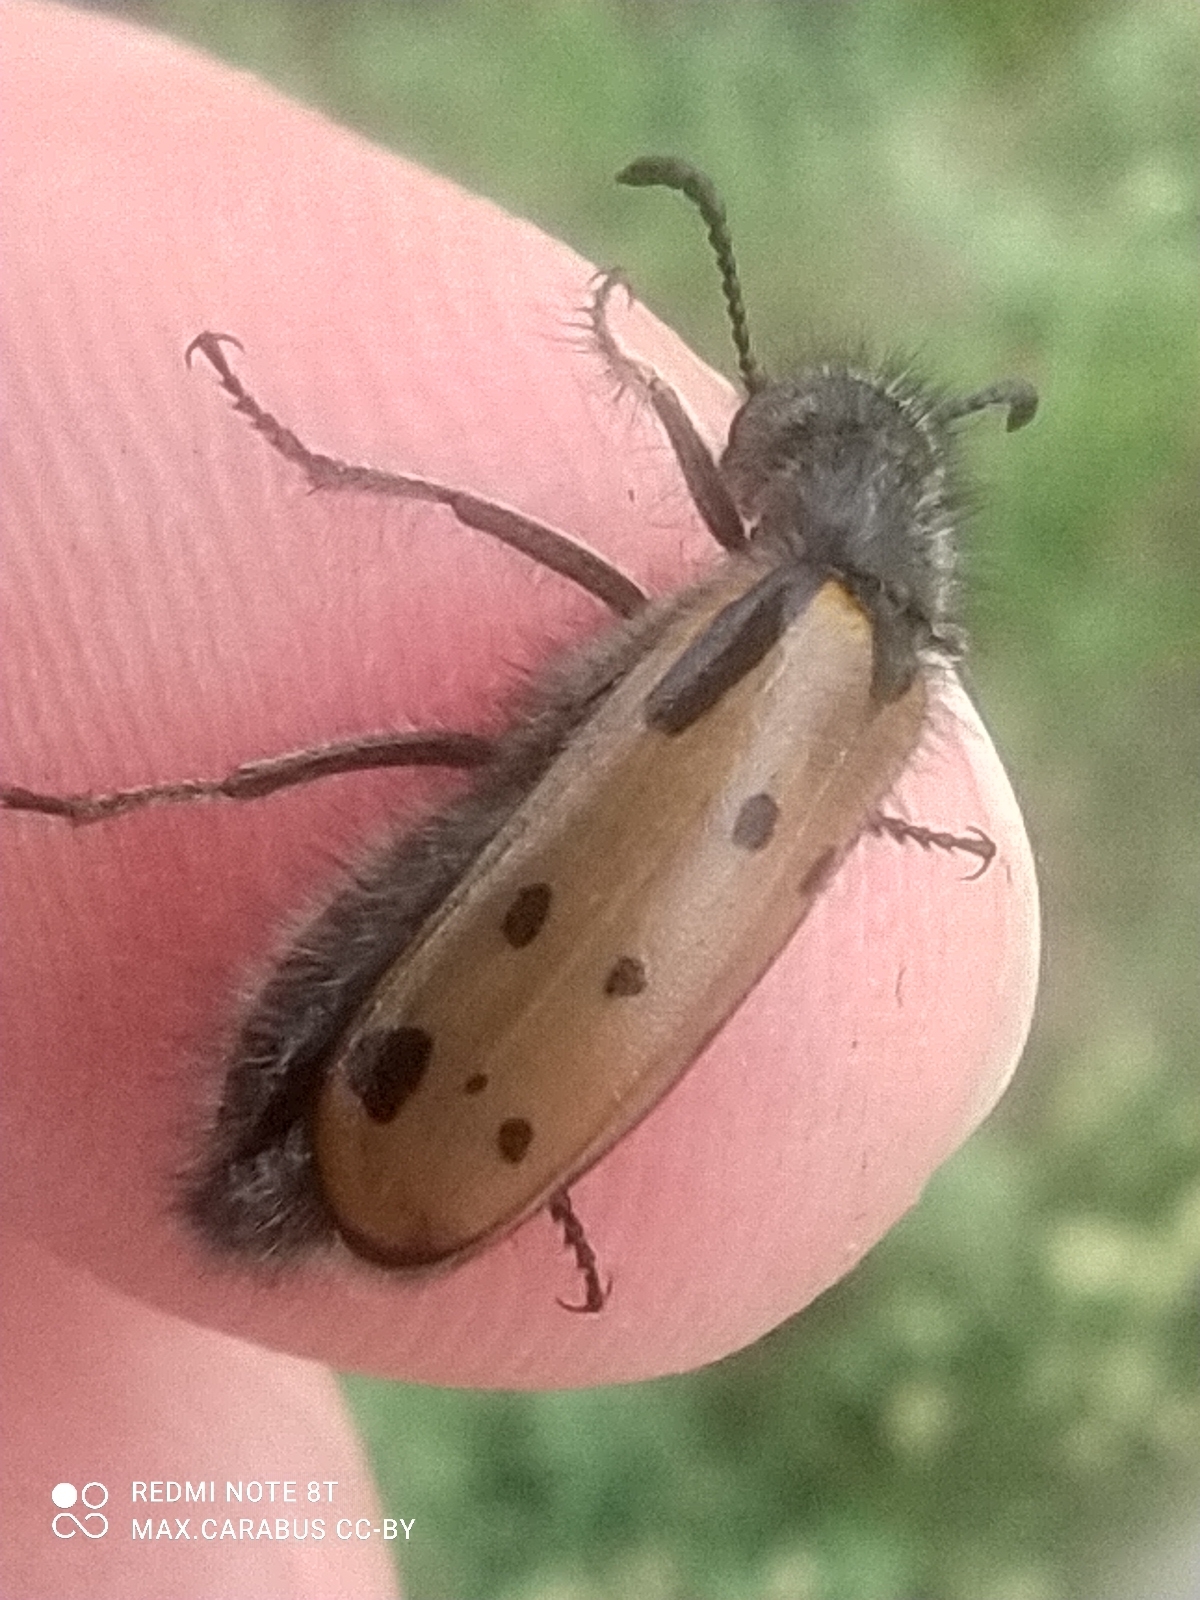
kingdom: Animalia
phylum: Arthropoda
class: Insecta
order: Coleoptera
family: Meloidae
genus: Hycleus
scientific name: Hycleus quatuordecimpunctatus
